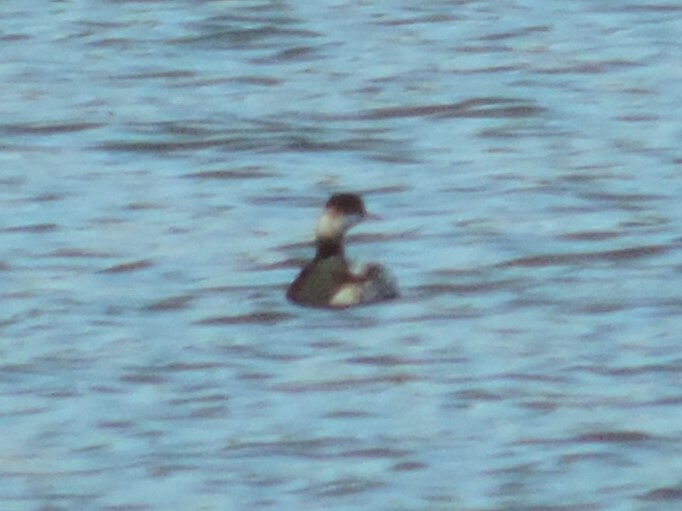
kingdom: Animalia
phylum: Chordata
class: Aves
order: Podicipediformes
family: Podicipedidae
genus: Podiceps
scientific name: Podiceps nigricollis
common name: Black-necked grebe
